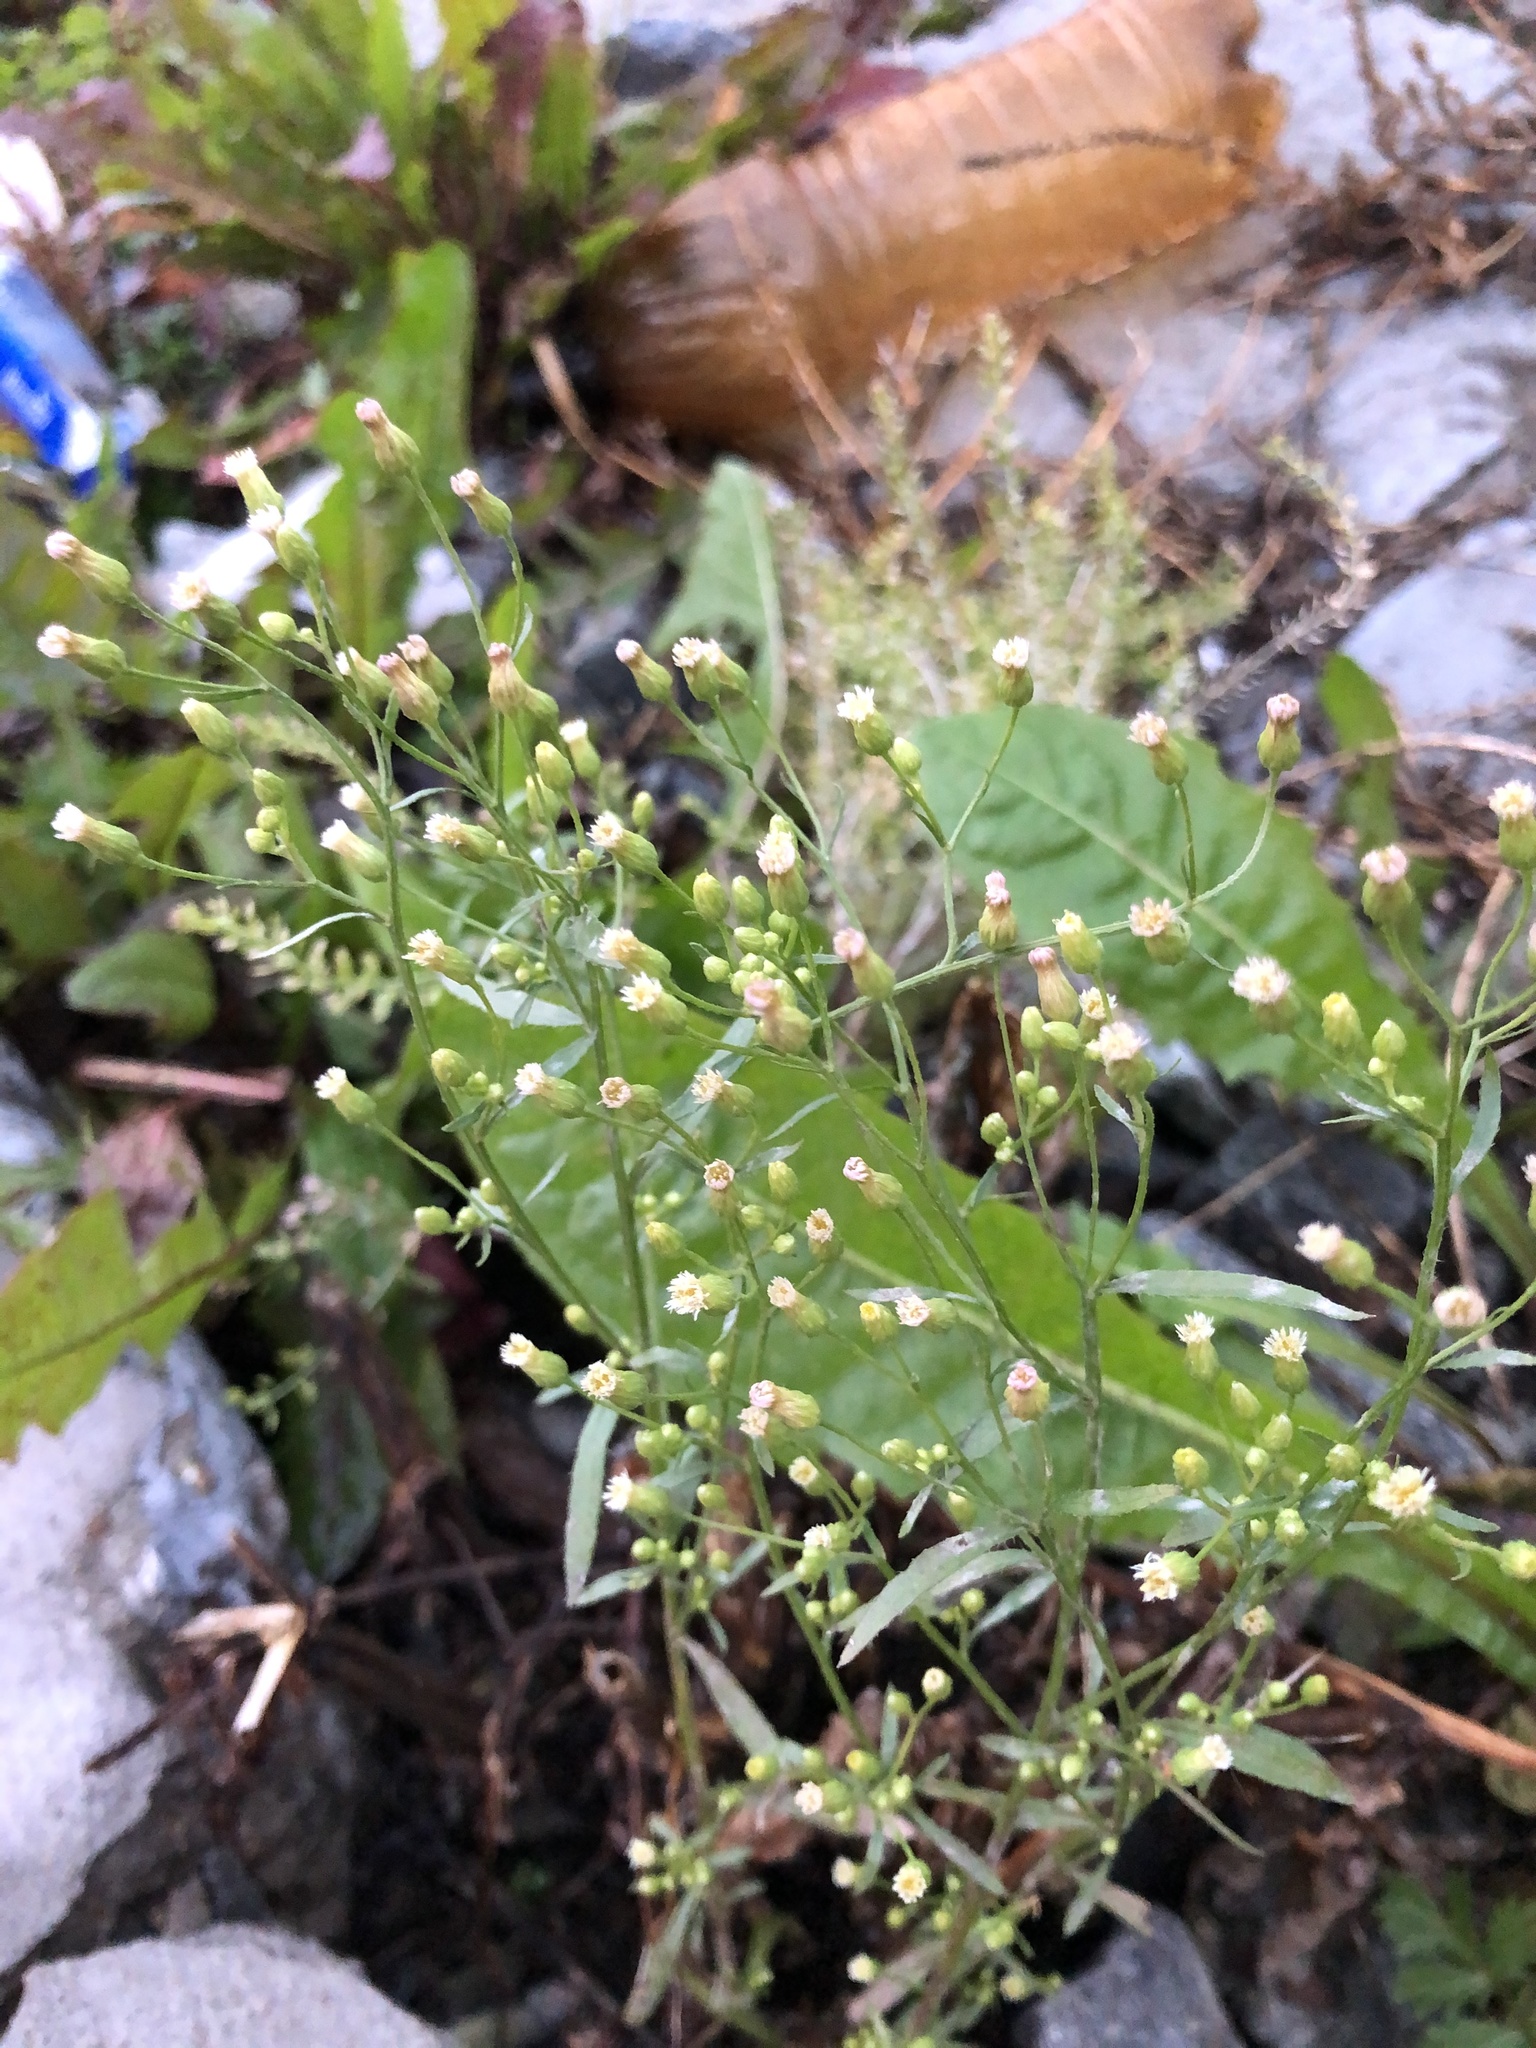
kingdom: Plantae
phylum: Tracheophyta
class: Magnoliopsida
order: Asterales
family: Asteraceae
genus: Erigeron
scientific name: Erigeron canadensis
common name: Canadian fleabane
